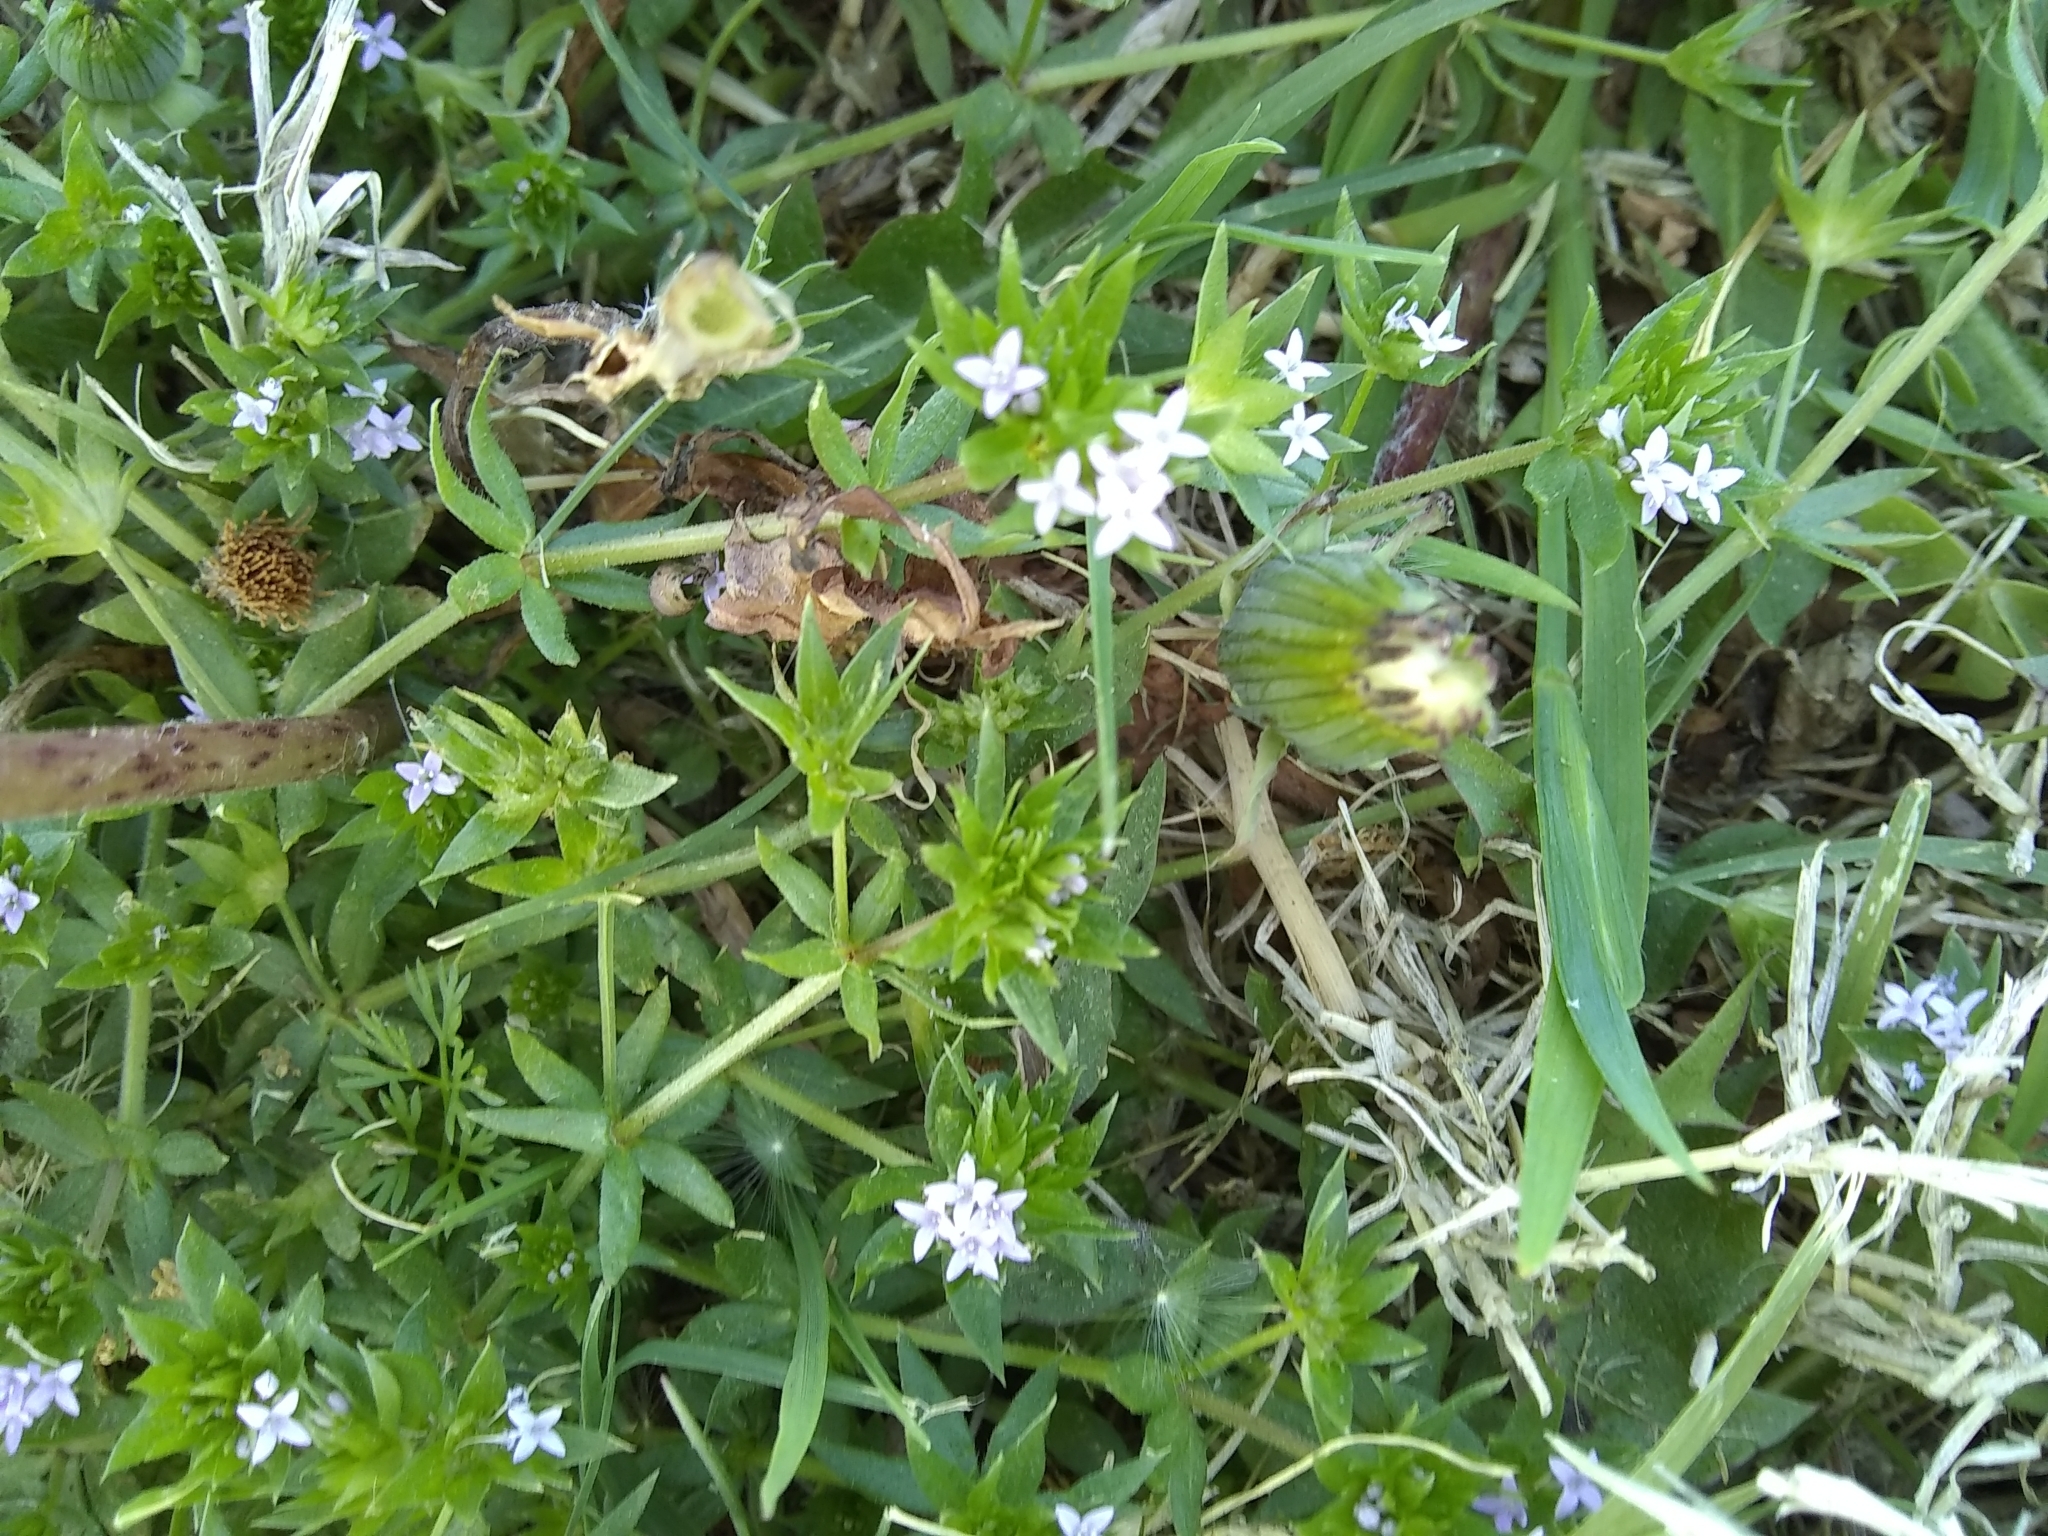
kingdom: Plantae
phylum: Tracheophyta
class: Magnoliopsida
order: Gentianales
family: Rubiaceae
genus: Sherardia
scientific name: Sherardia arvensis
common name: Field madder
